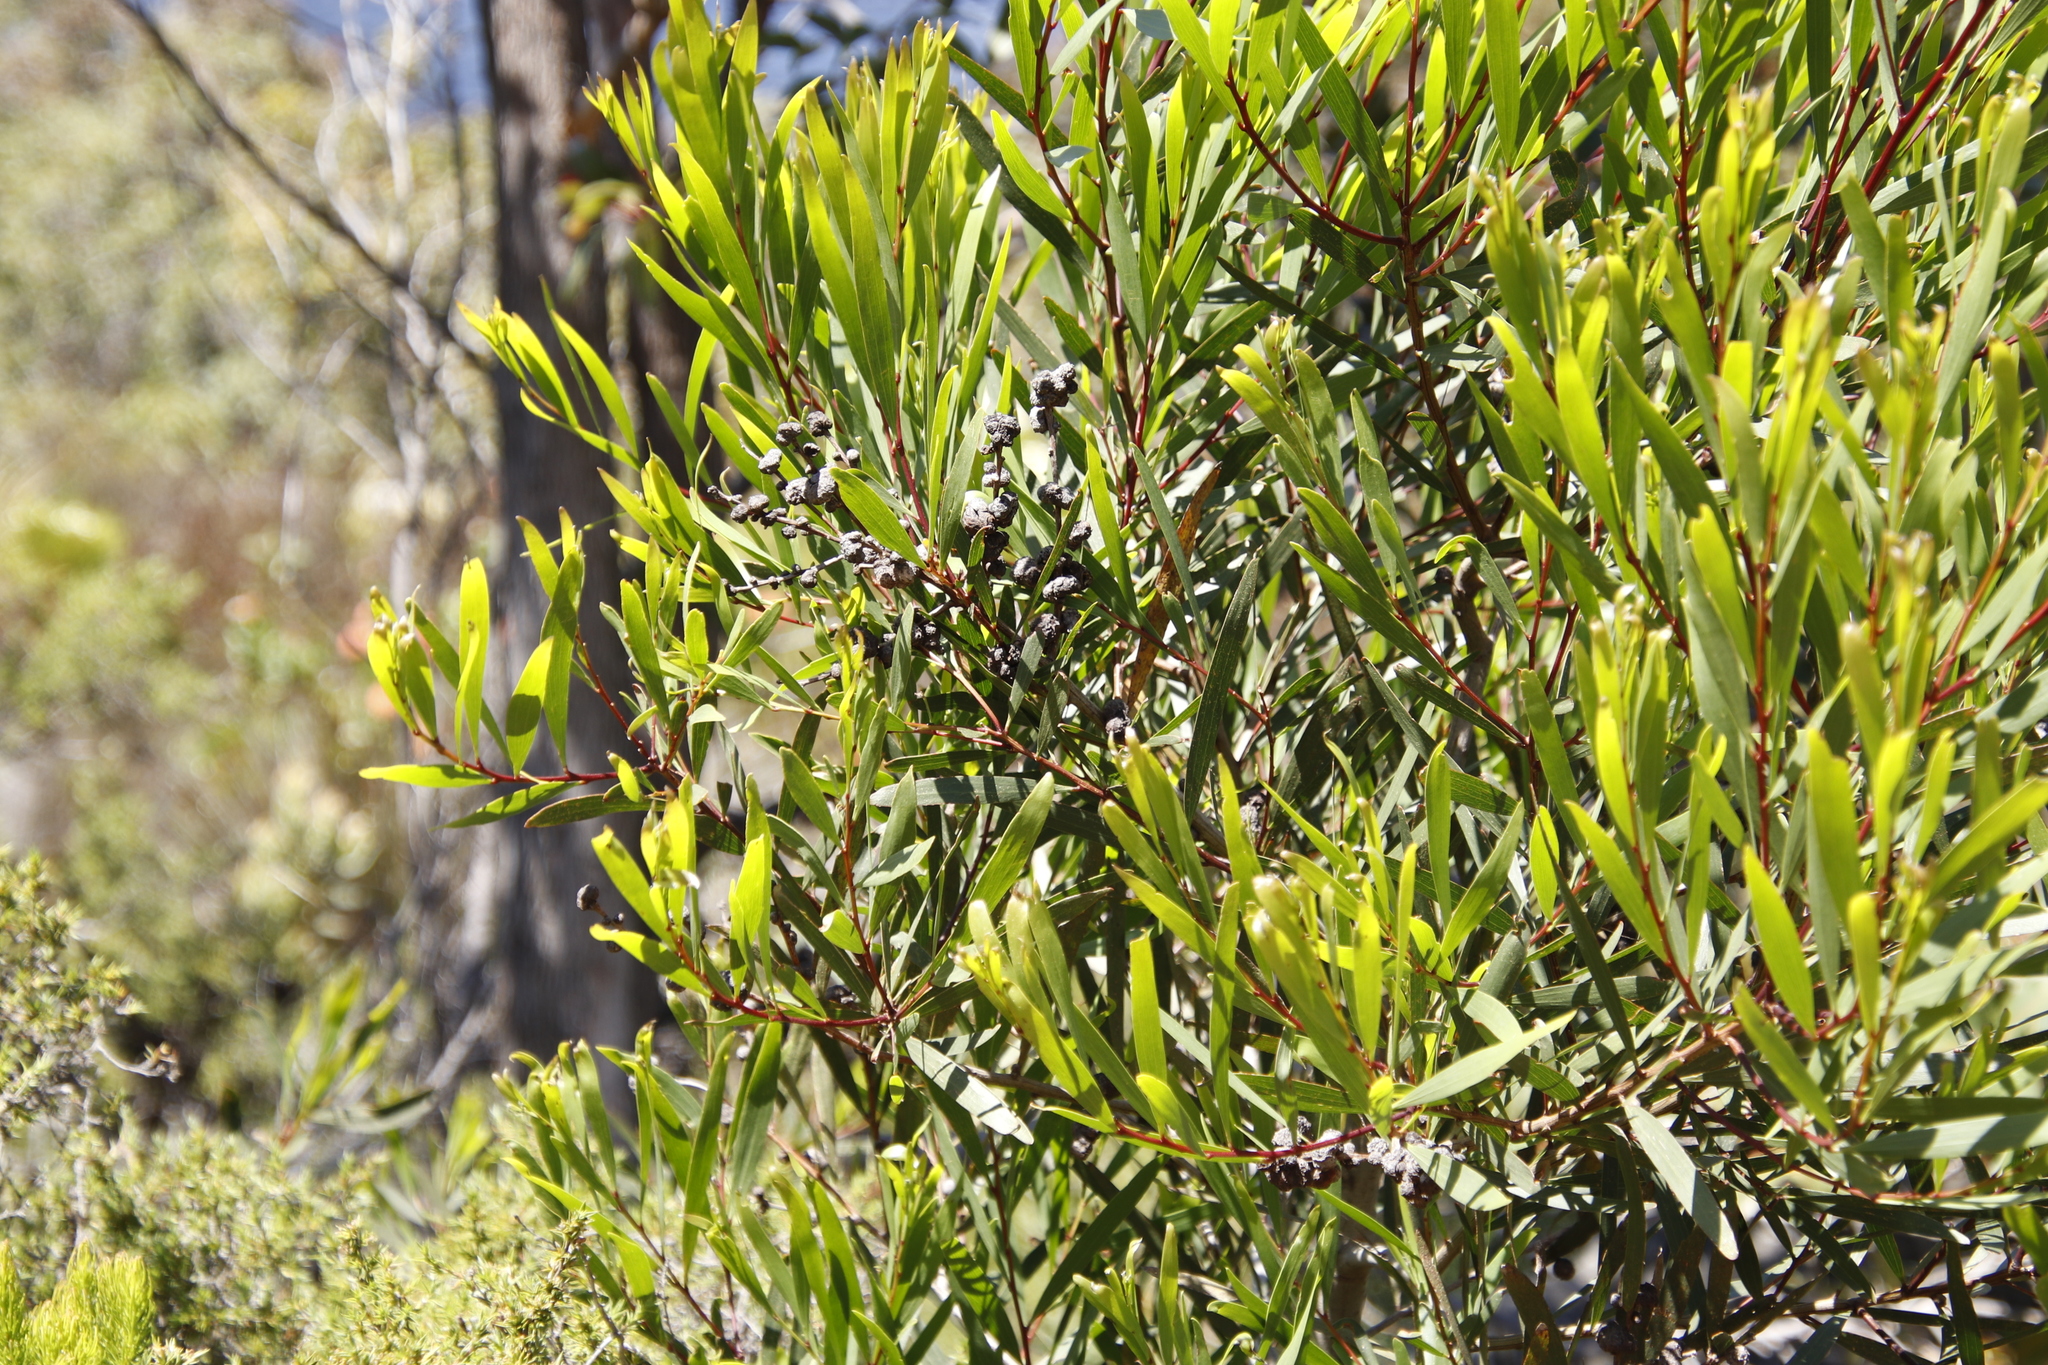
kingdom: Plantae
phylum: Tracheophyta
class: Magnoliopsida
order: Fabales
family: Fabaceae
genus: Acacia
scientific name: Acacia cyclops
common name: Coastal wattle
